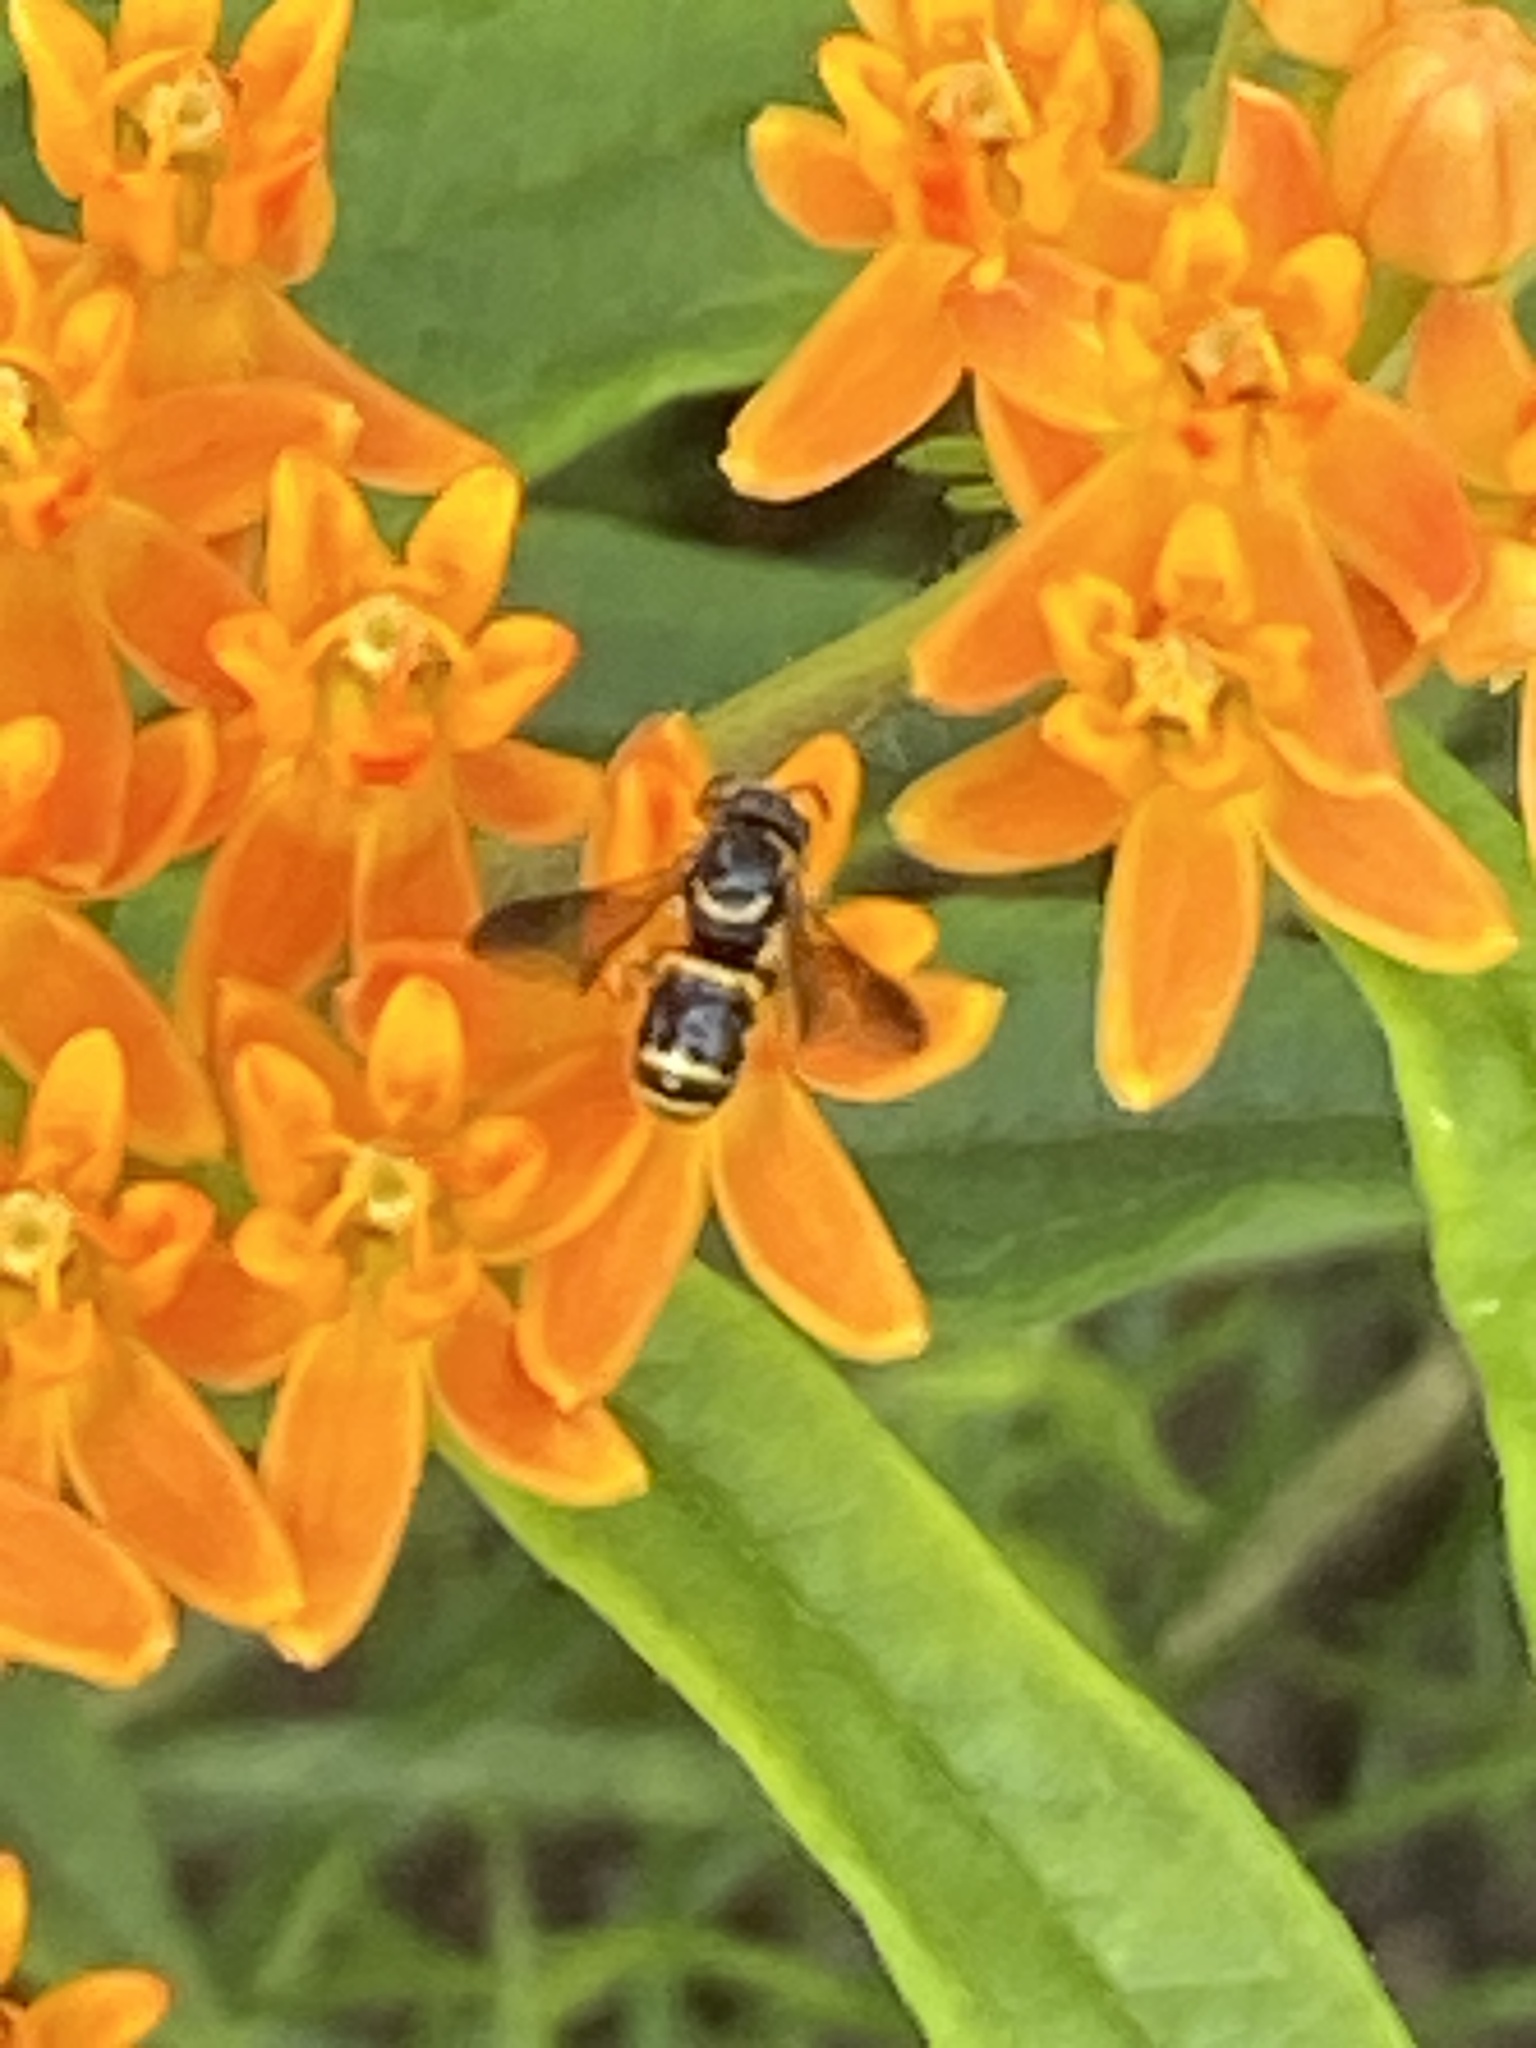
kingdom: Animalia
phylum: Arthropoda
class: Insecta
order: Hymenoptera
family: Megachilidae
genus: Stelis
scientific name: Stelis louisae
